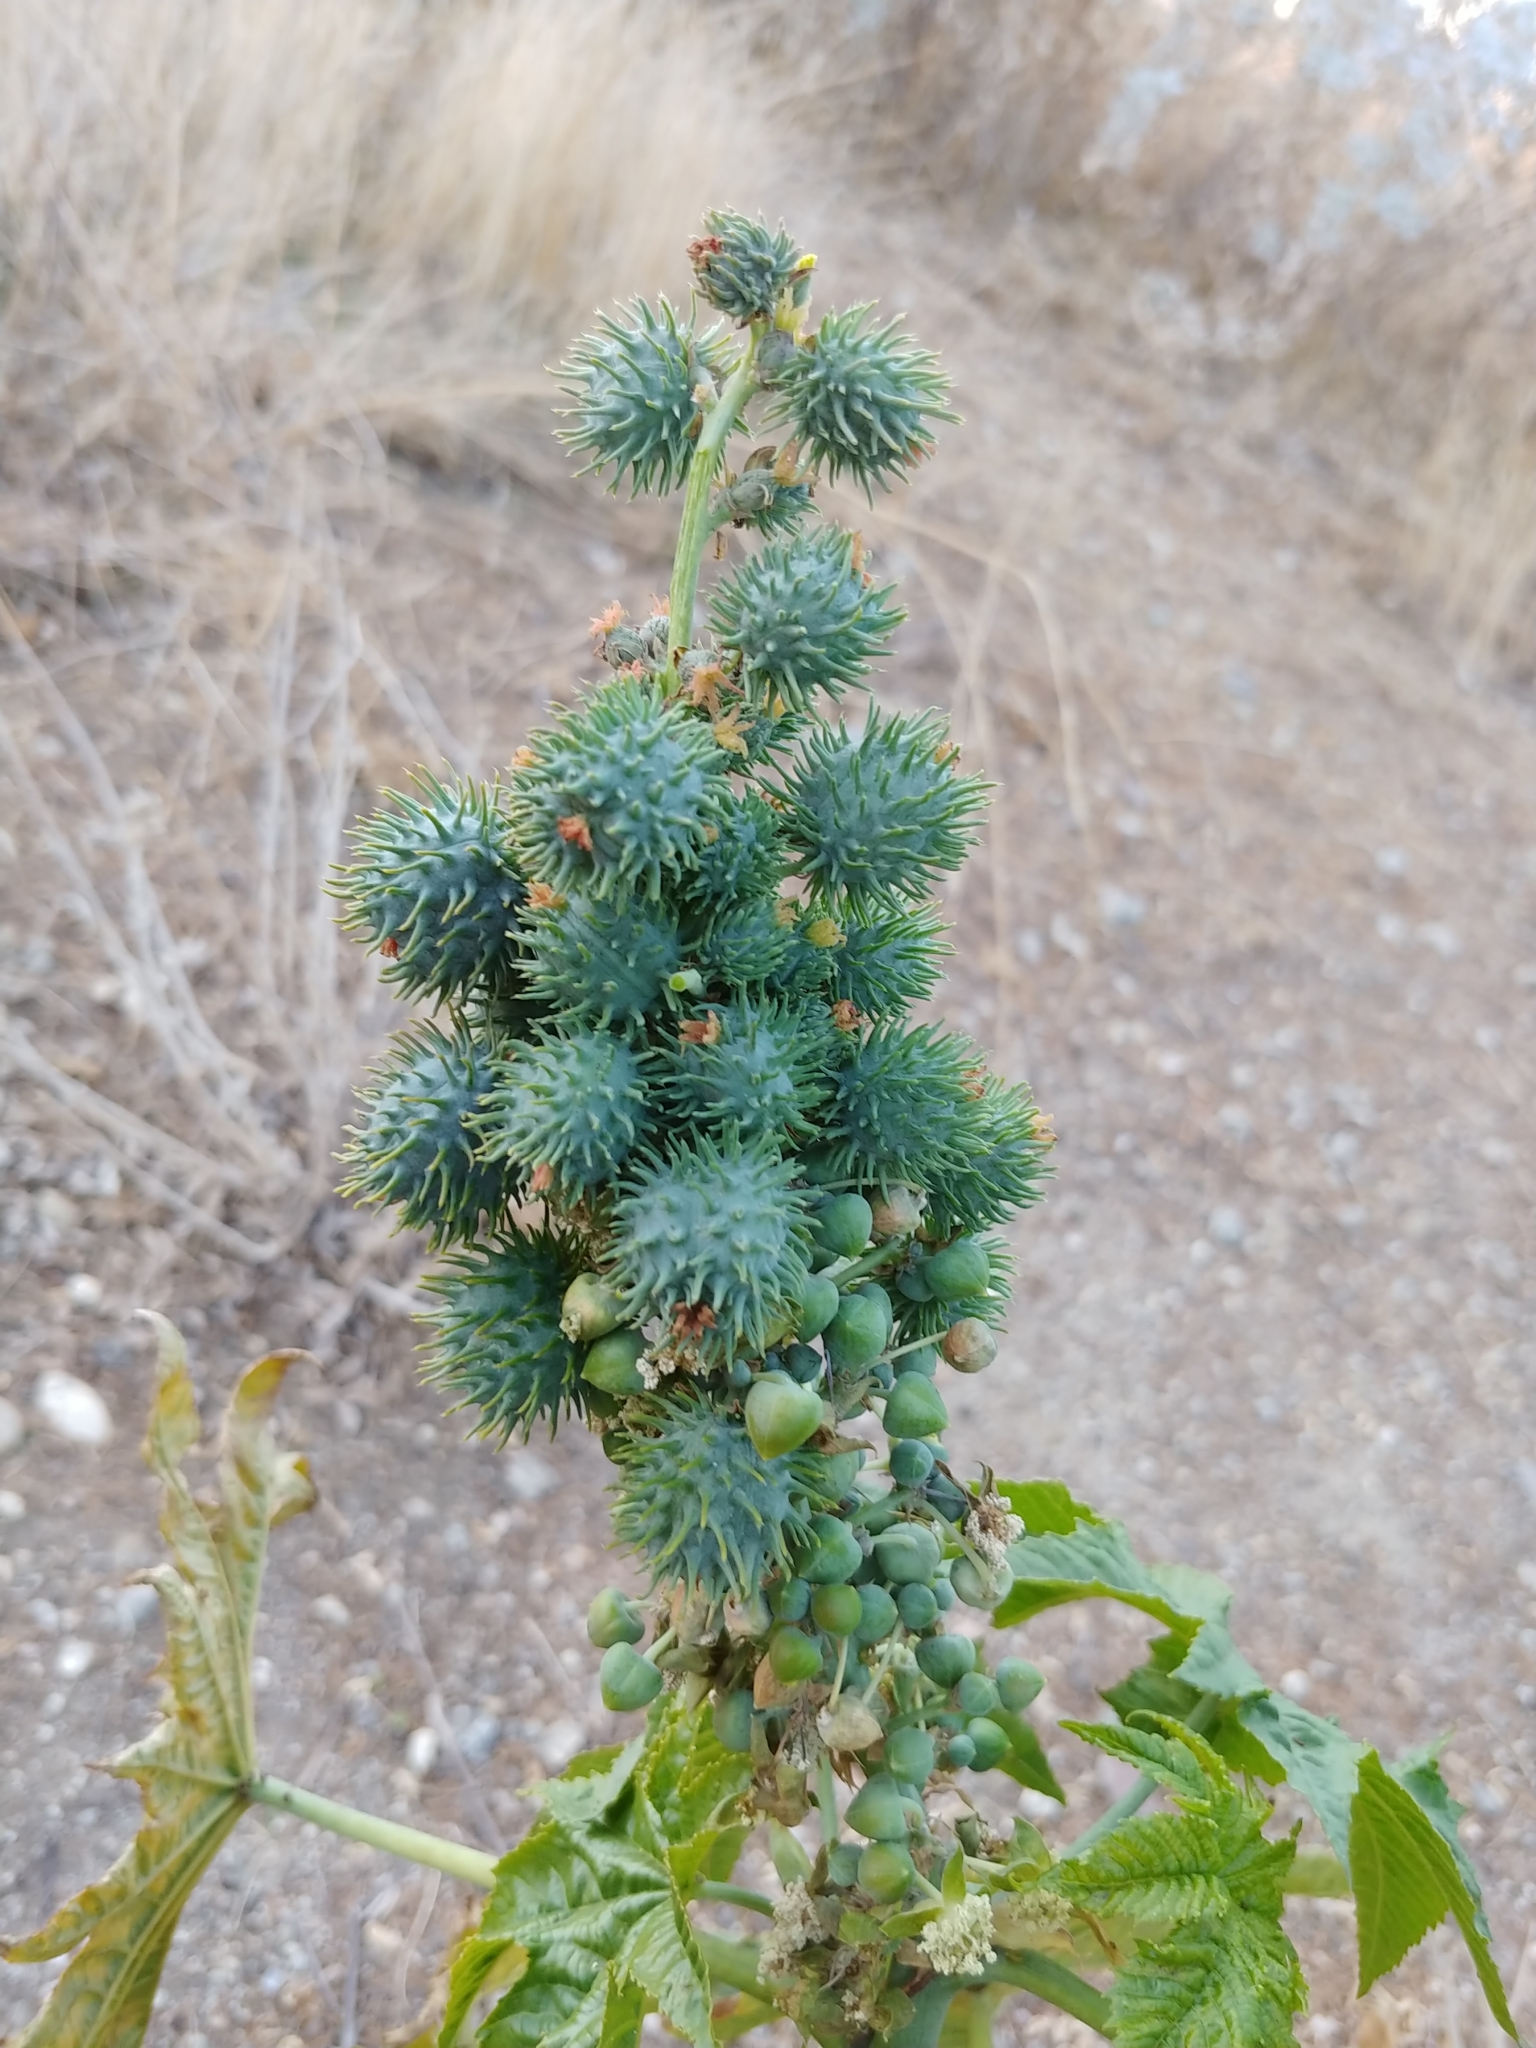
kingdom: Plantae
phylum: Tracheophyta
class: Magnoliopsida
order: Malpighiales
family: Euphorbiaceae
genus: Ricinus
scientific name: Ricinus communis
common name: Castor-oil-plant
